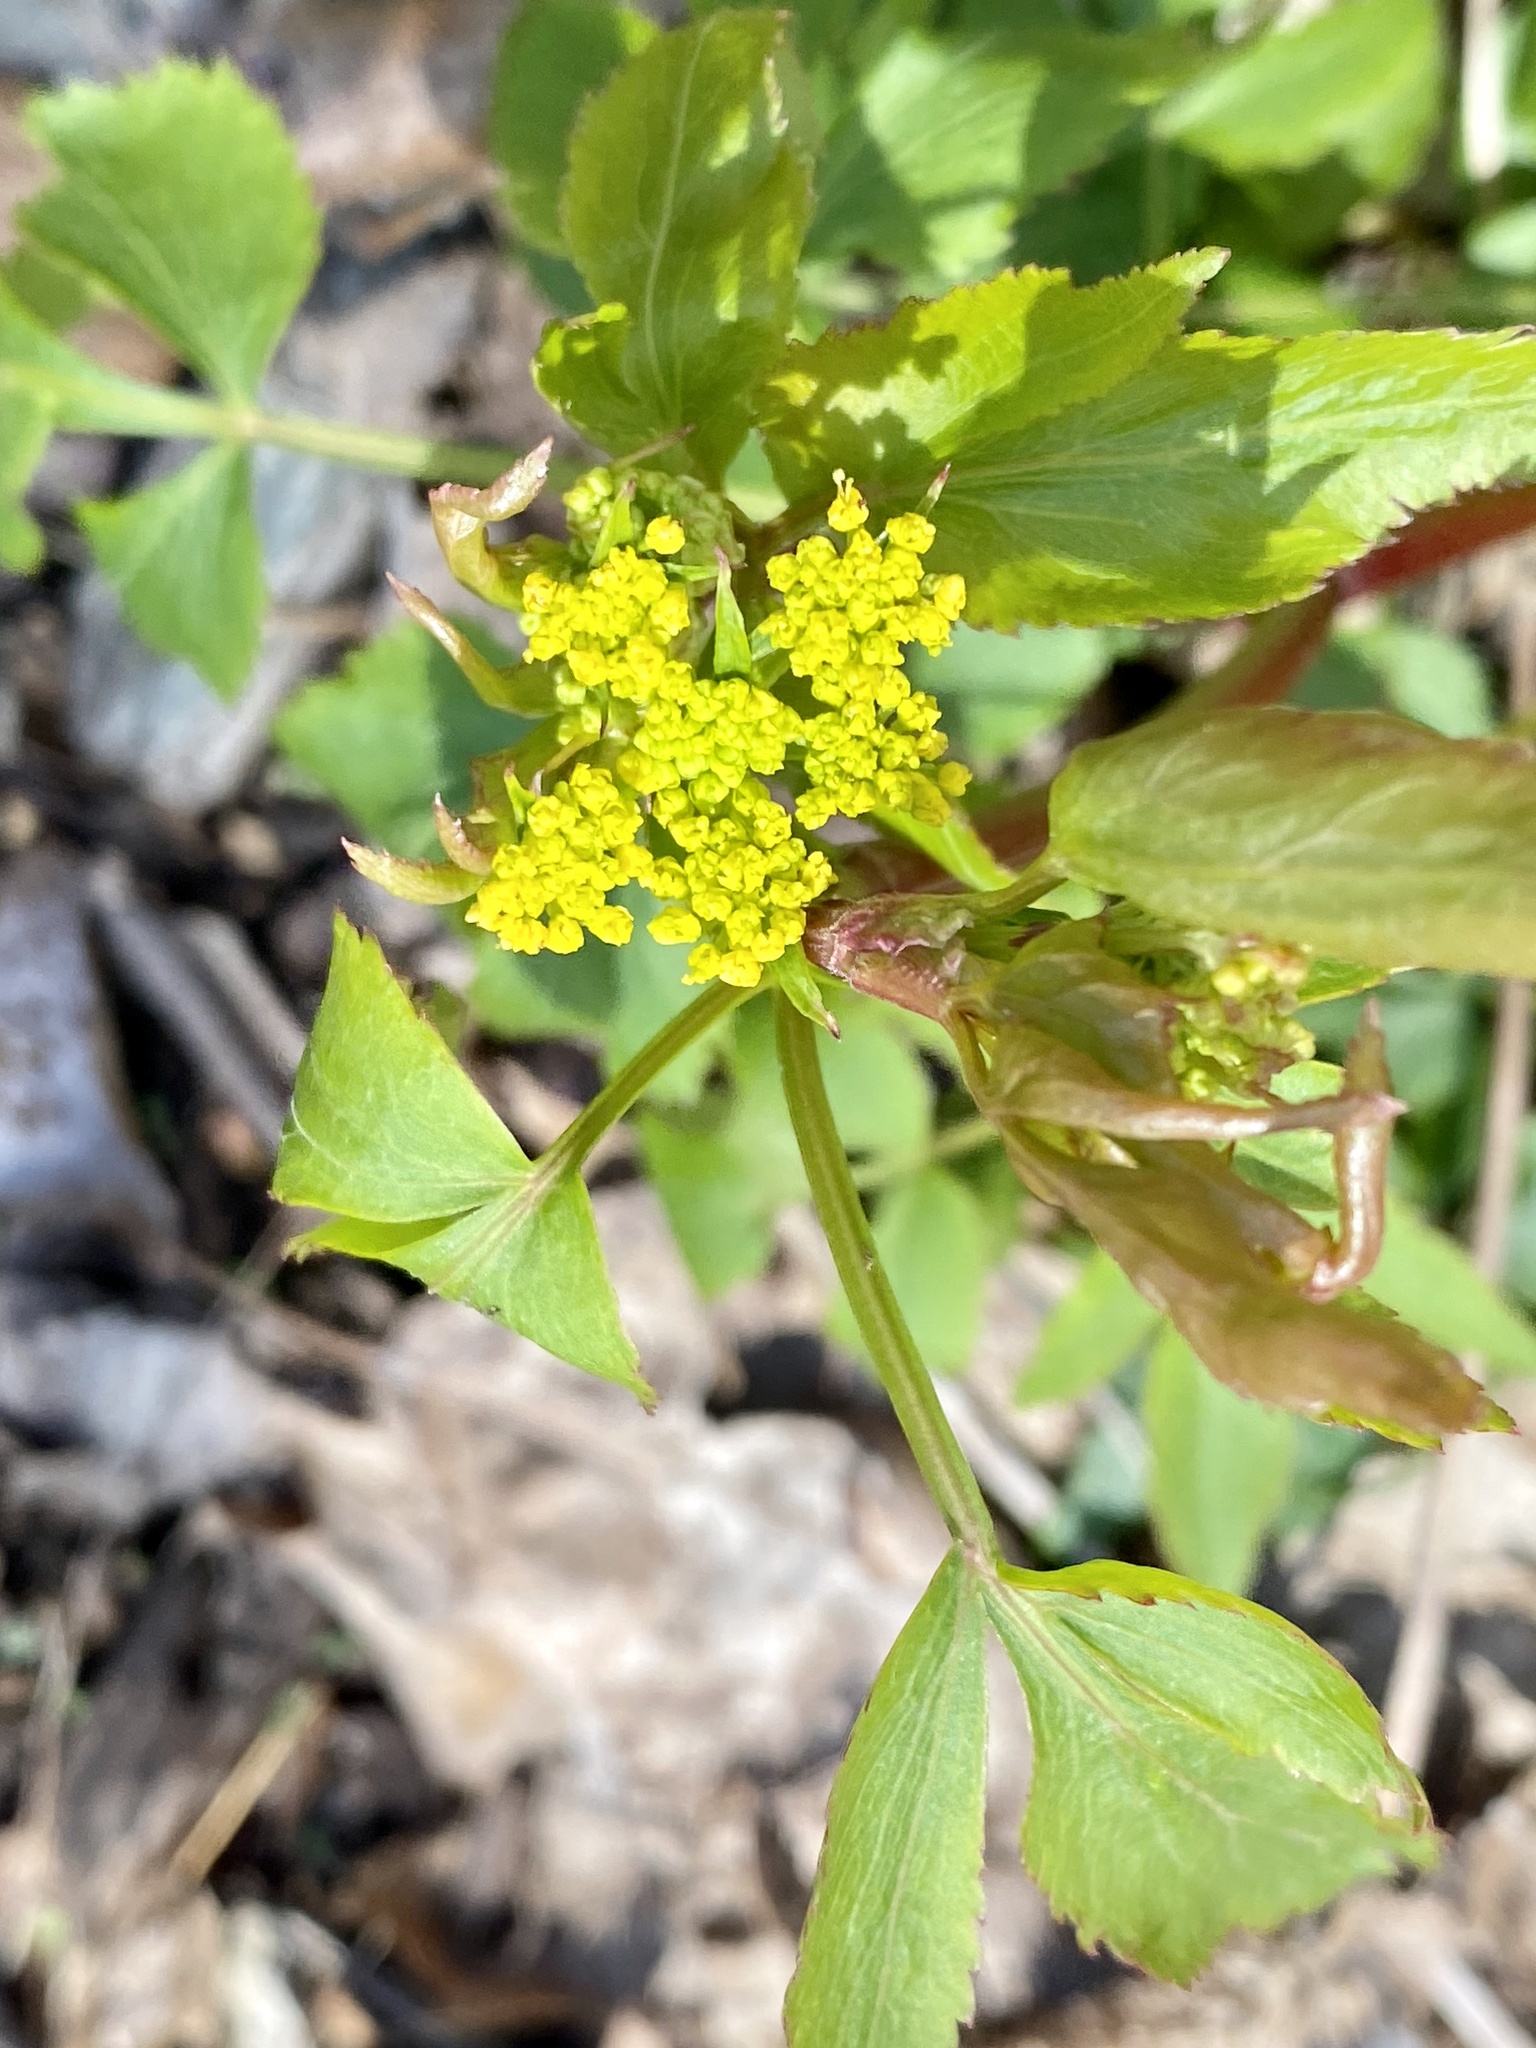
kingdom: Plantae
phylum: Tracheophyta
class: Magnoliopsida
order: Apiales
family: Apiaceae
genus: Zizia
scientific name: Zizia aurea
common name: Golden alexanders
